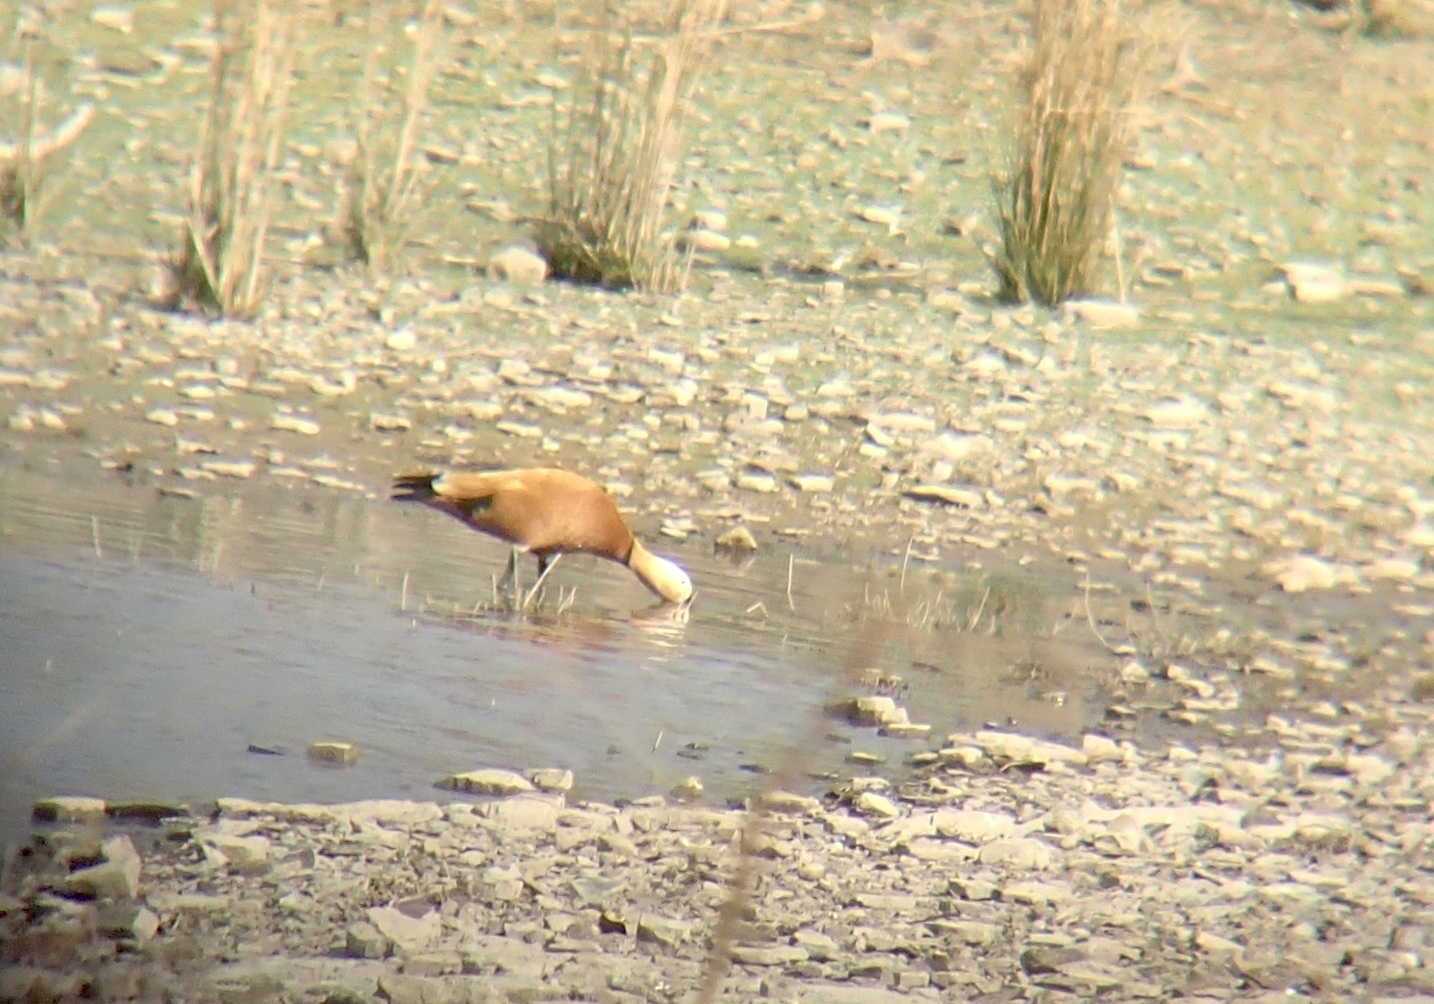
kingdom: Animalia
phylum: Chordata
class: Aves
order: Anseriformes
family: Anatidae
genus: Tadorna
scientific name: Tadorna ferruginea
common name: Ruddy shelduck
